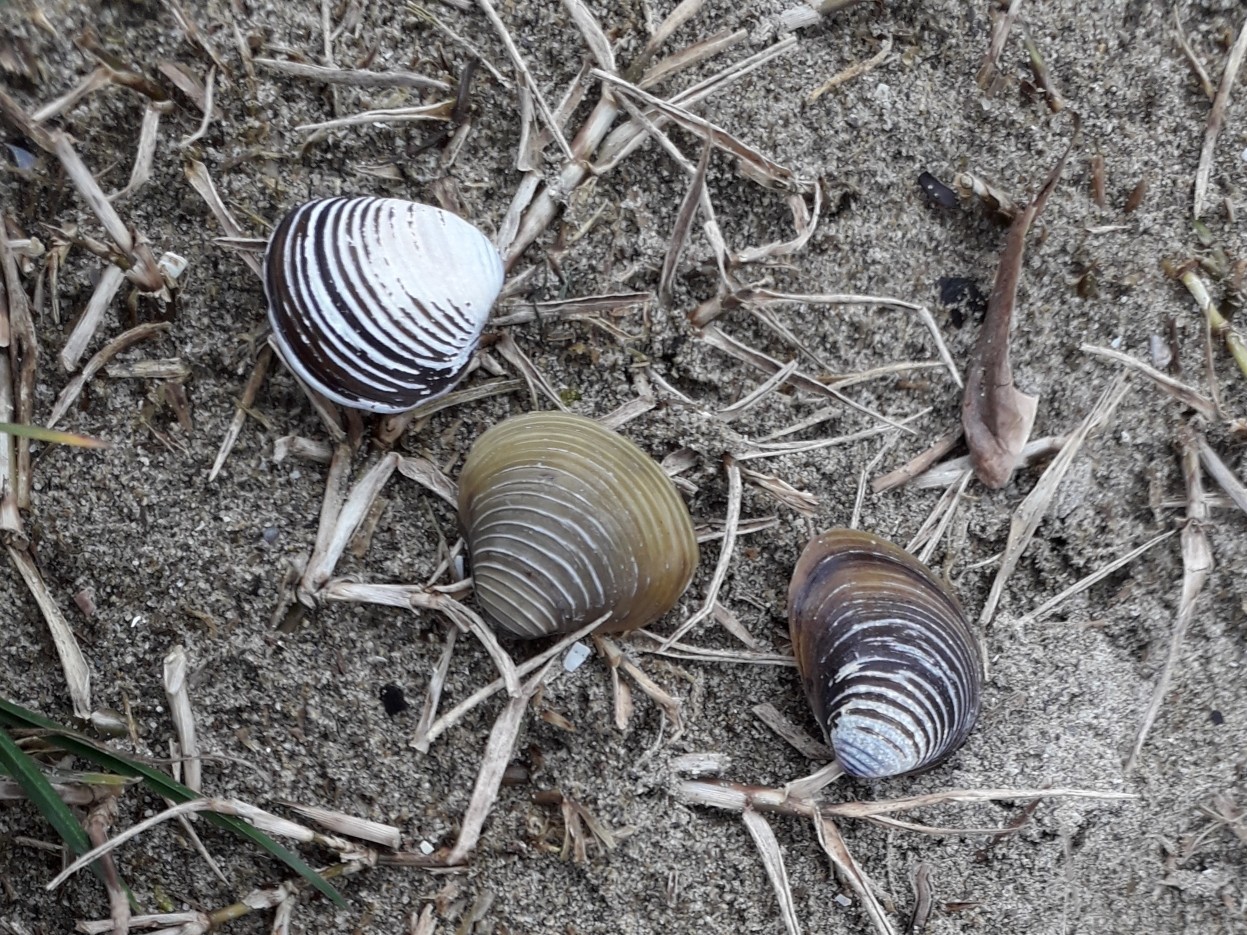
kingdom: Animalia
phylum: Mollusca
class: Bivalvia
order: Venerida
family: Cyrenidae
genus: Corbicula
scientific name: Corbicula fluminea
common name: Asian clam
